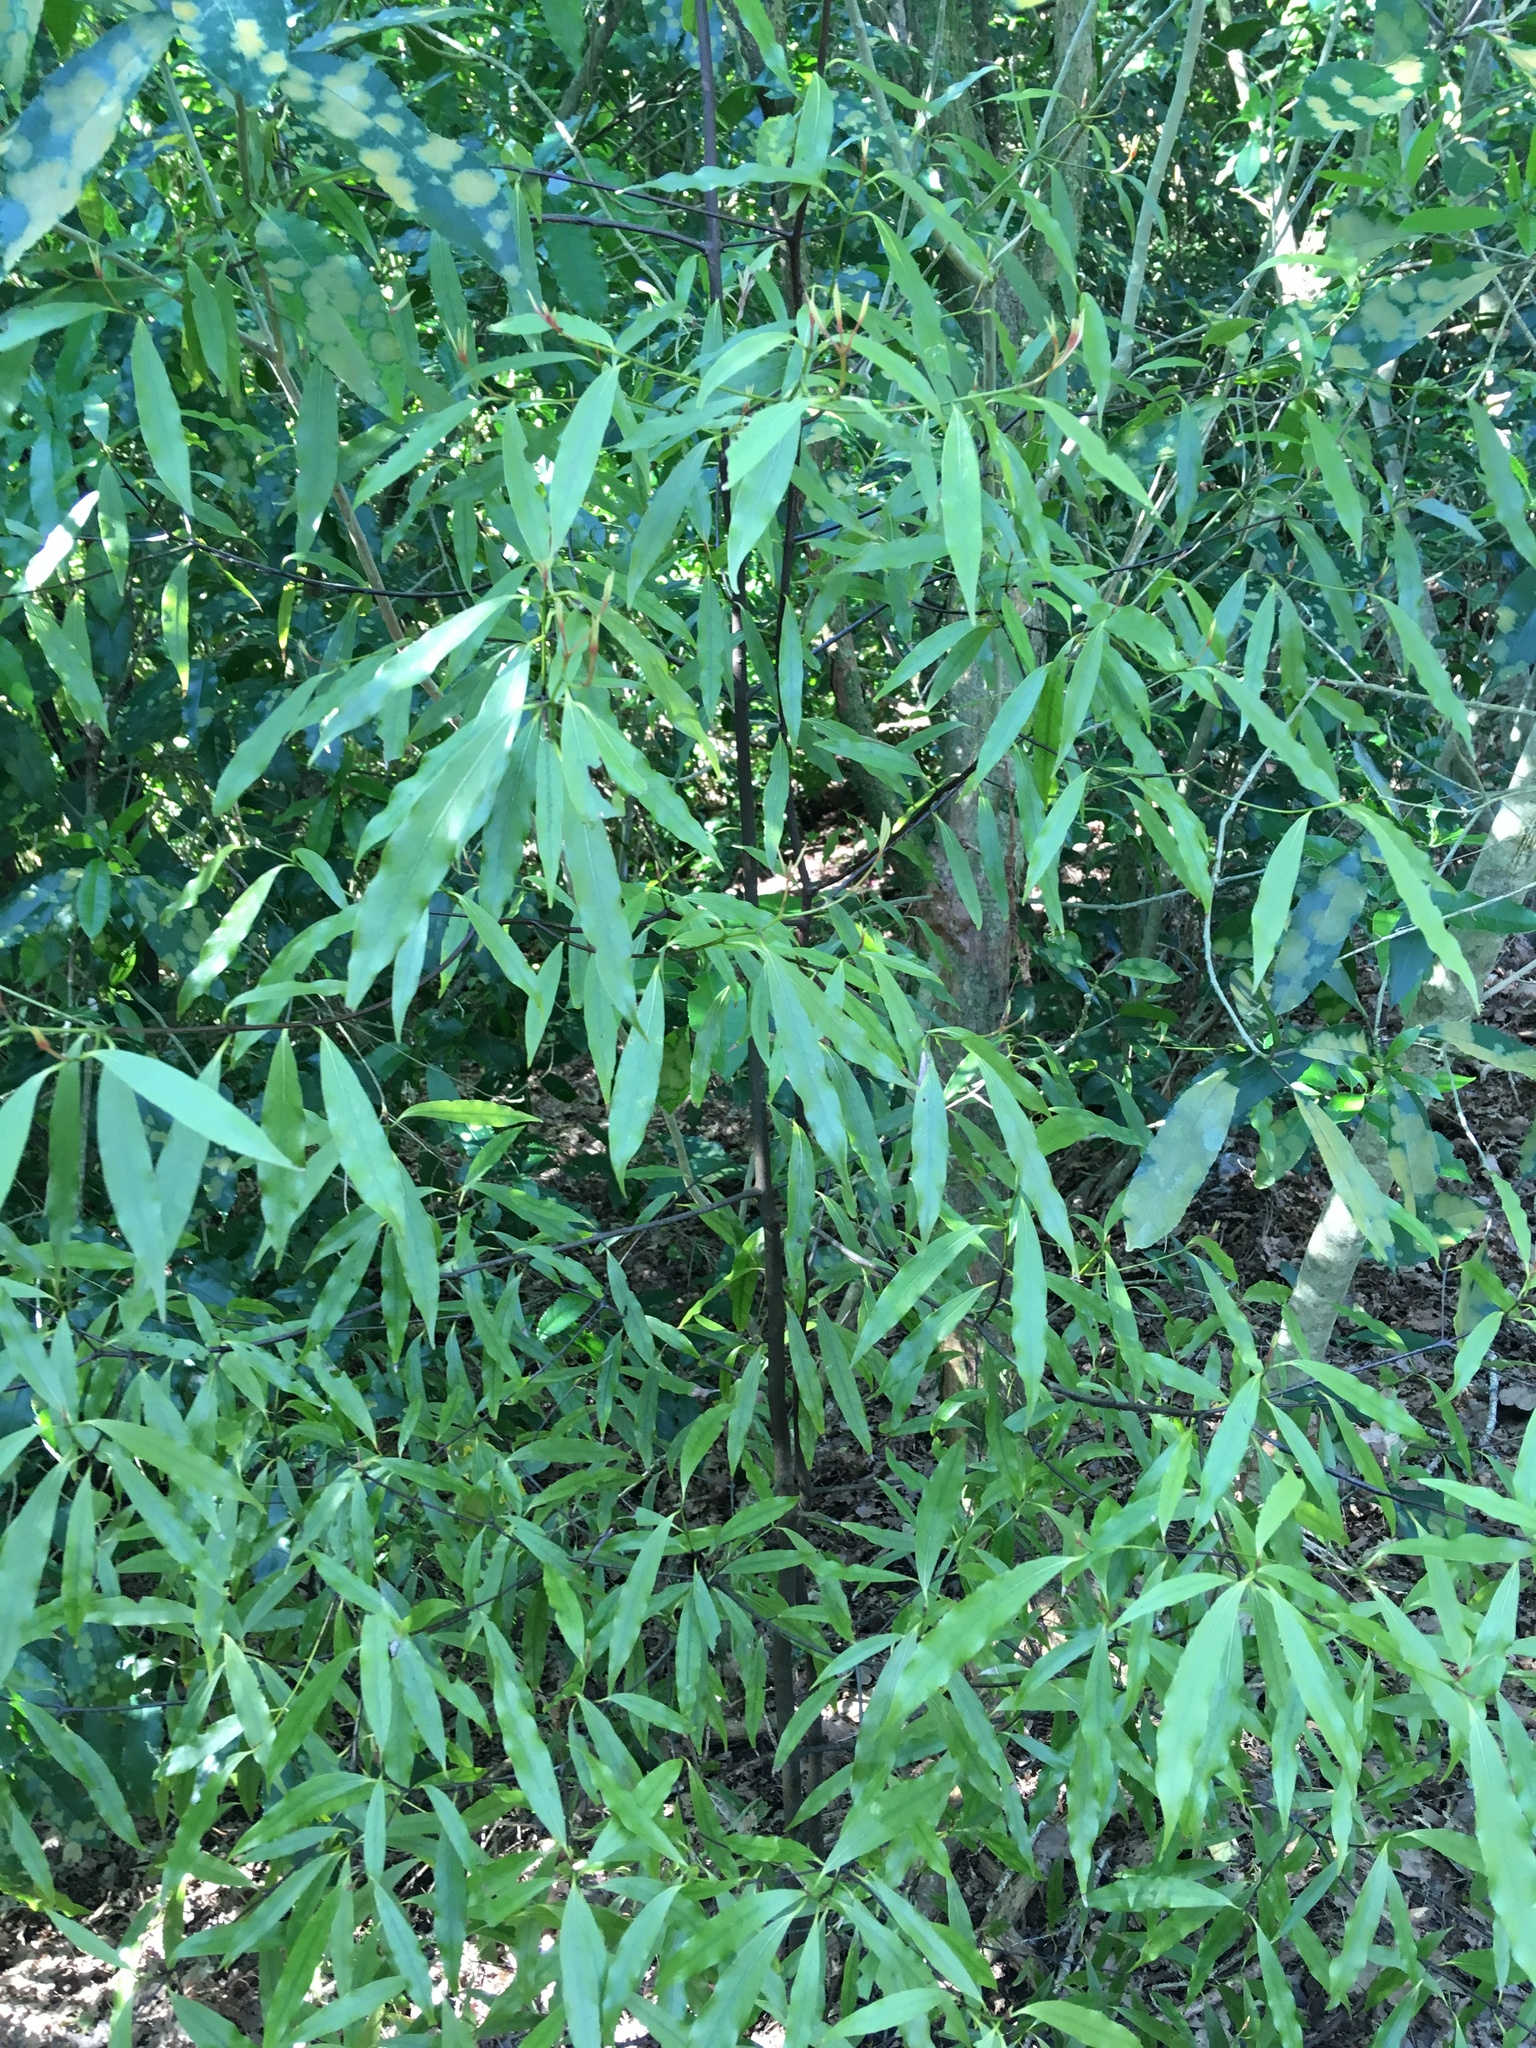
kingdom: Plantae
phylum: Tracheophyta
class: Magnoliopsida
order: Laurales
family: Lauraceae
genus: Beilschmiedia
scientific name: Beilschmiedia tawa
